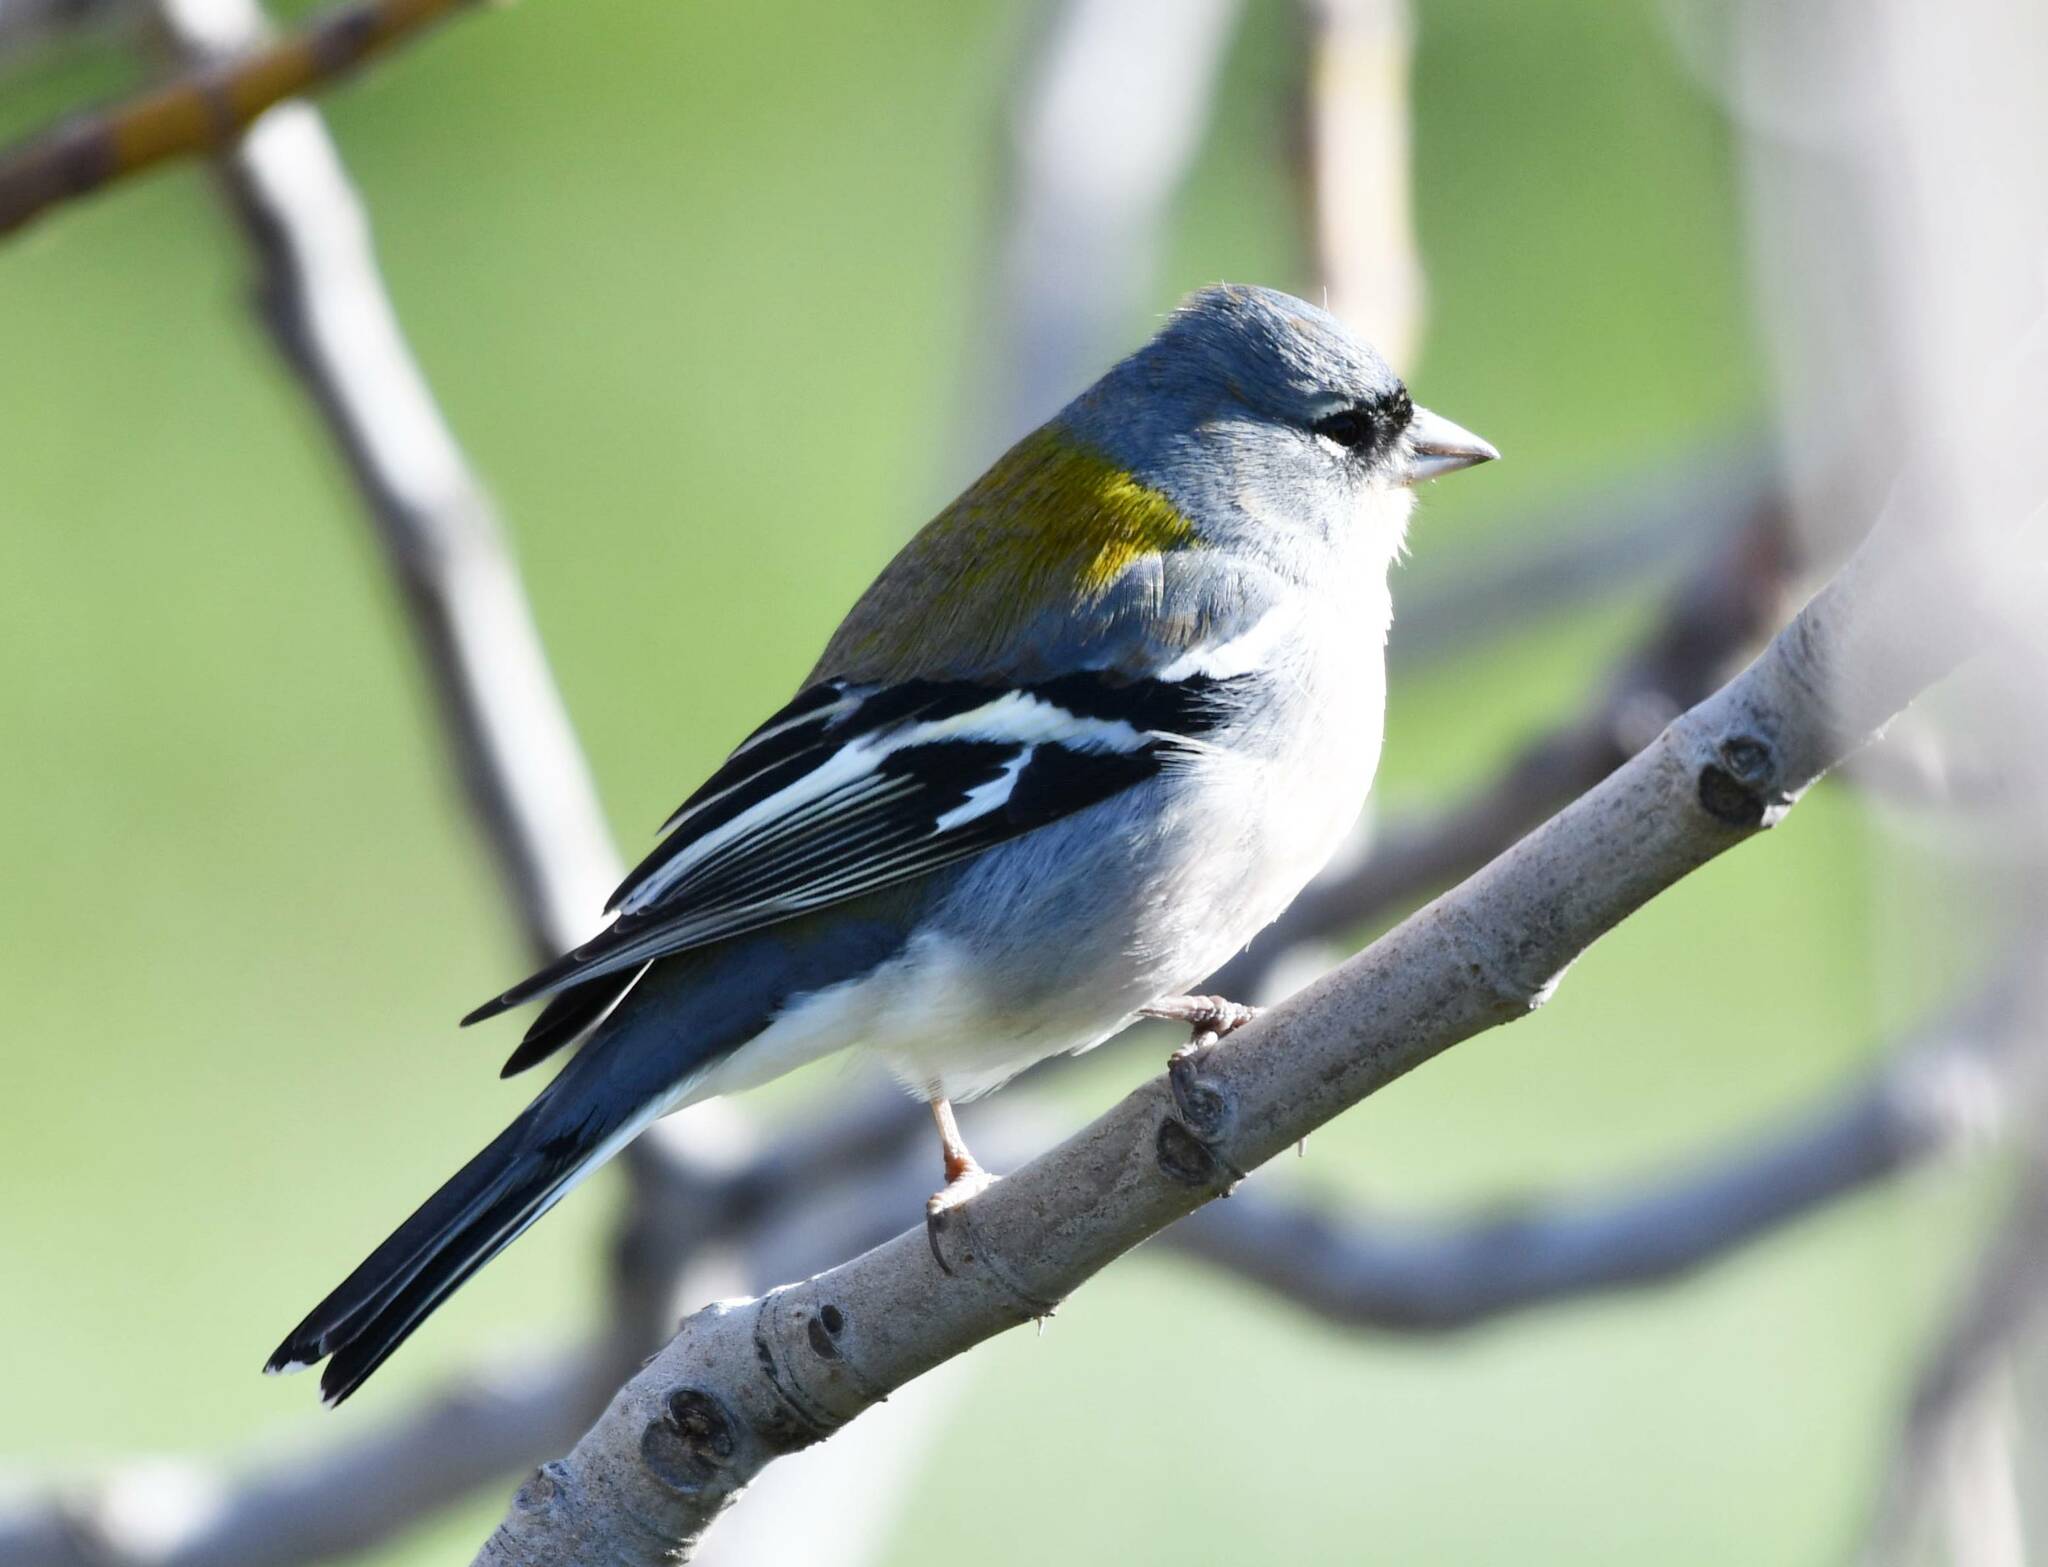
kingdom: Animalia
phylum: Chordata
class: Aves
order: Passeriformes
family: Fringillidae
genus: Fringilla
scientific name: Fringilla spodiogenys
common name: African chaffinch
